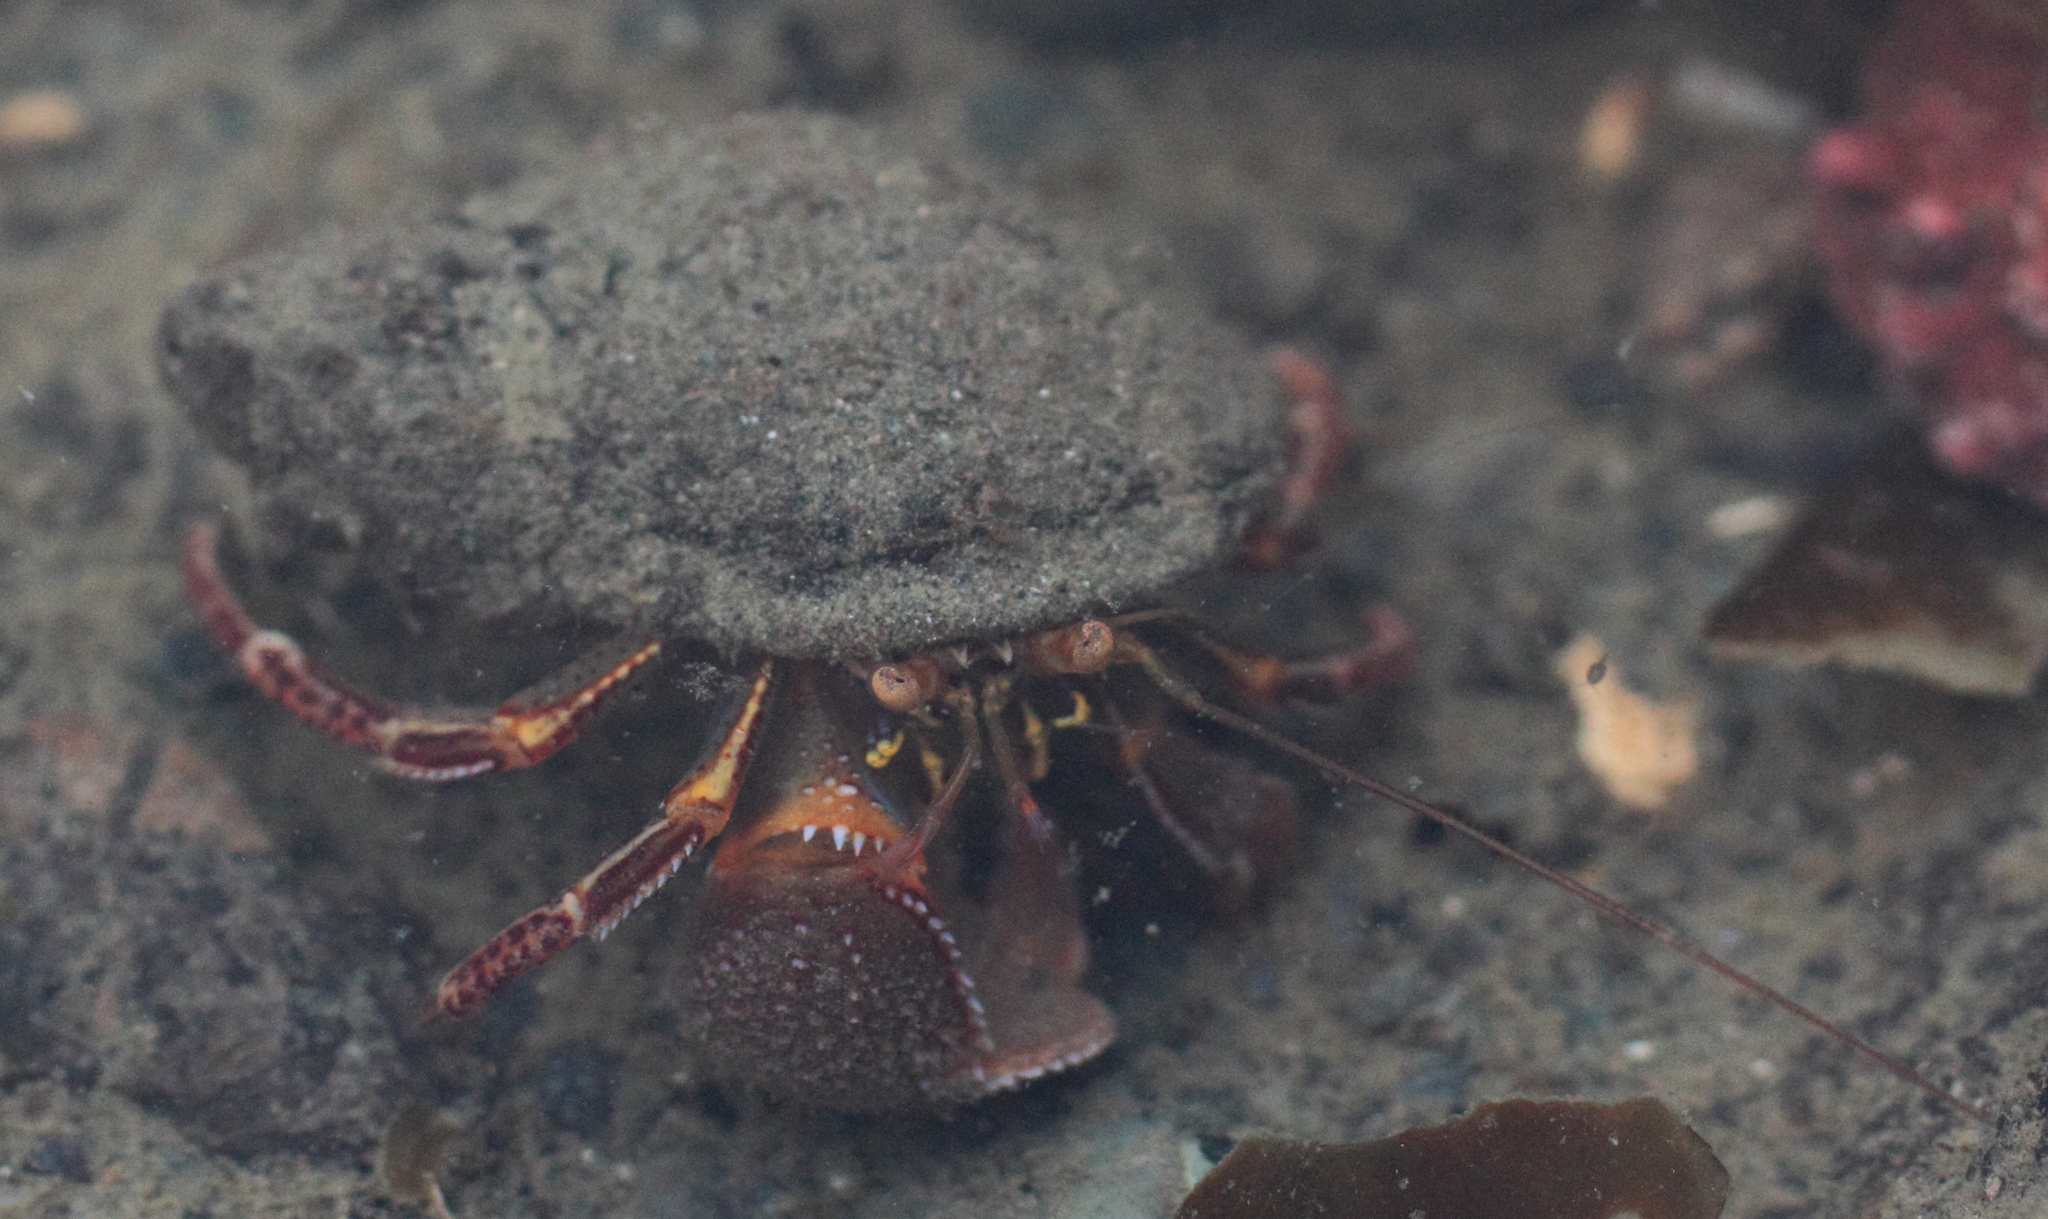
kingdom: Animalia
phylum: Arthropoda
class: Malacostraca
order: Decapoda
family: Paguridae
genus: Elassochirus
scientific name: Elassochirus tenuimanus
